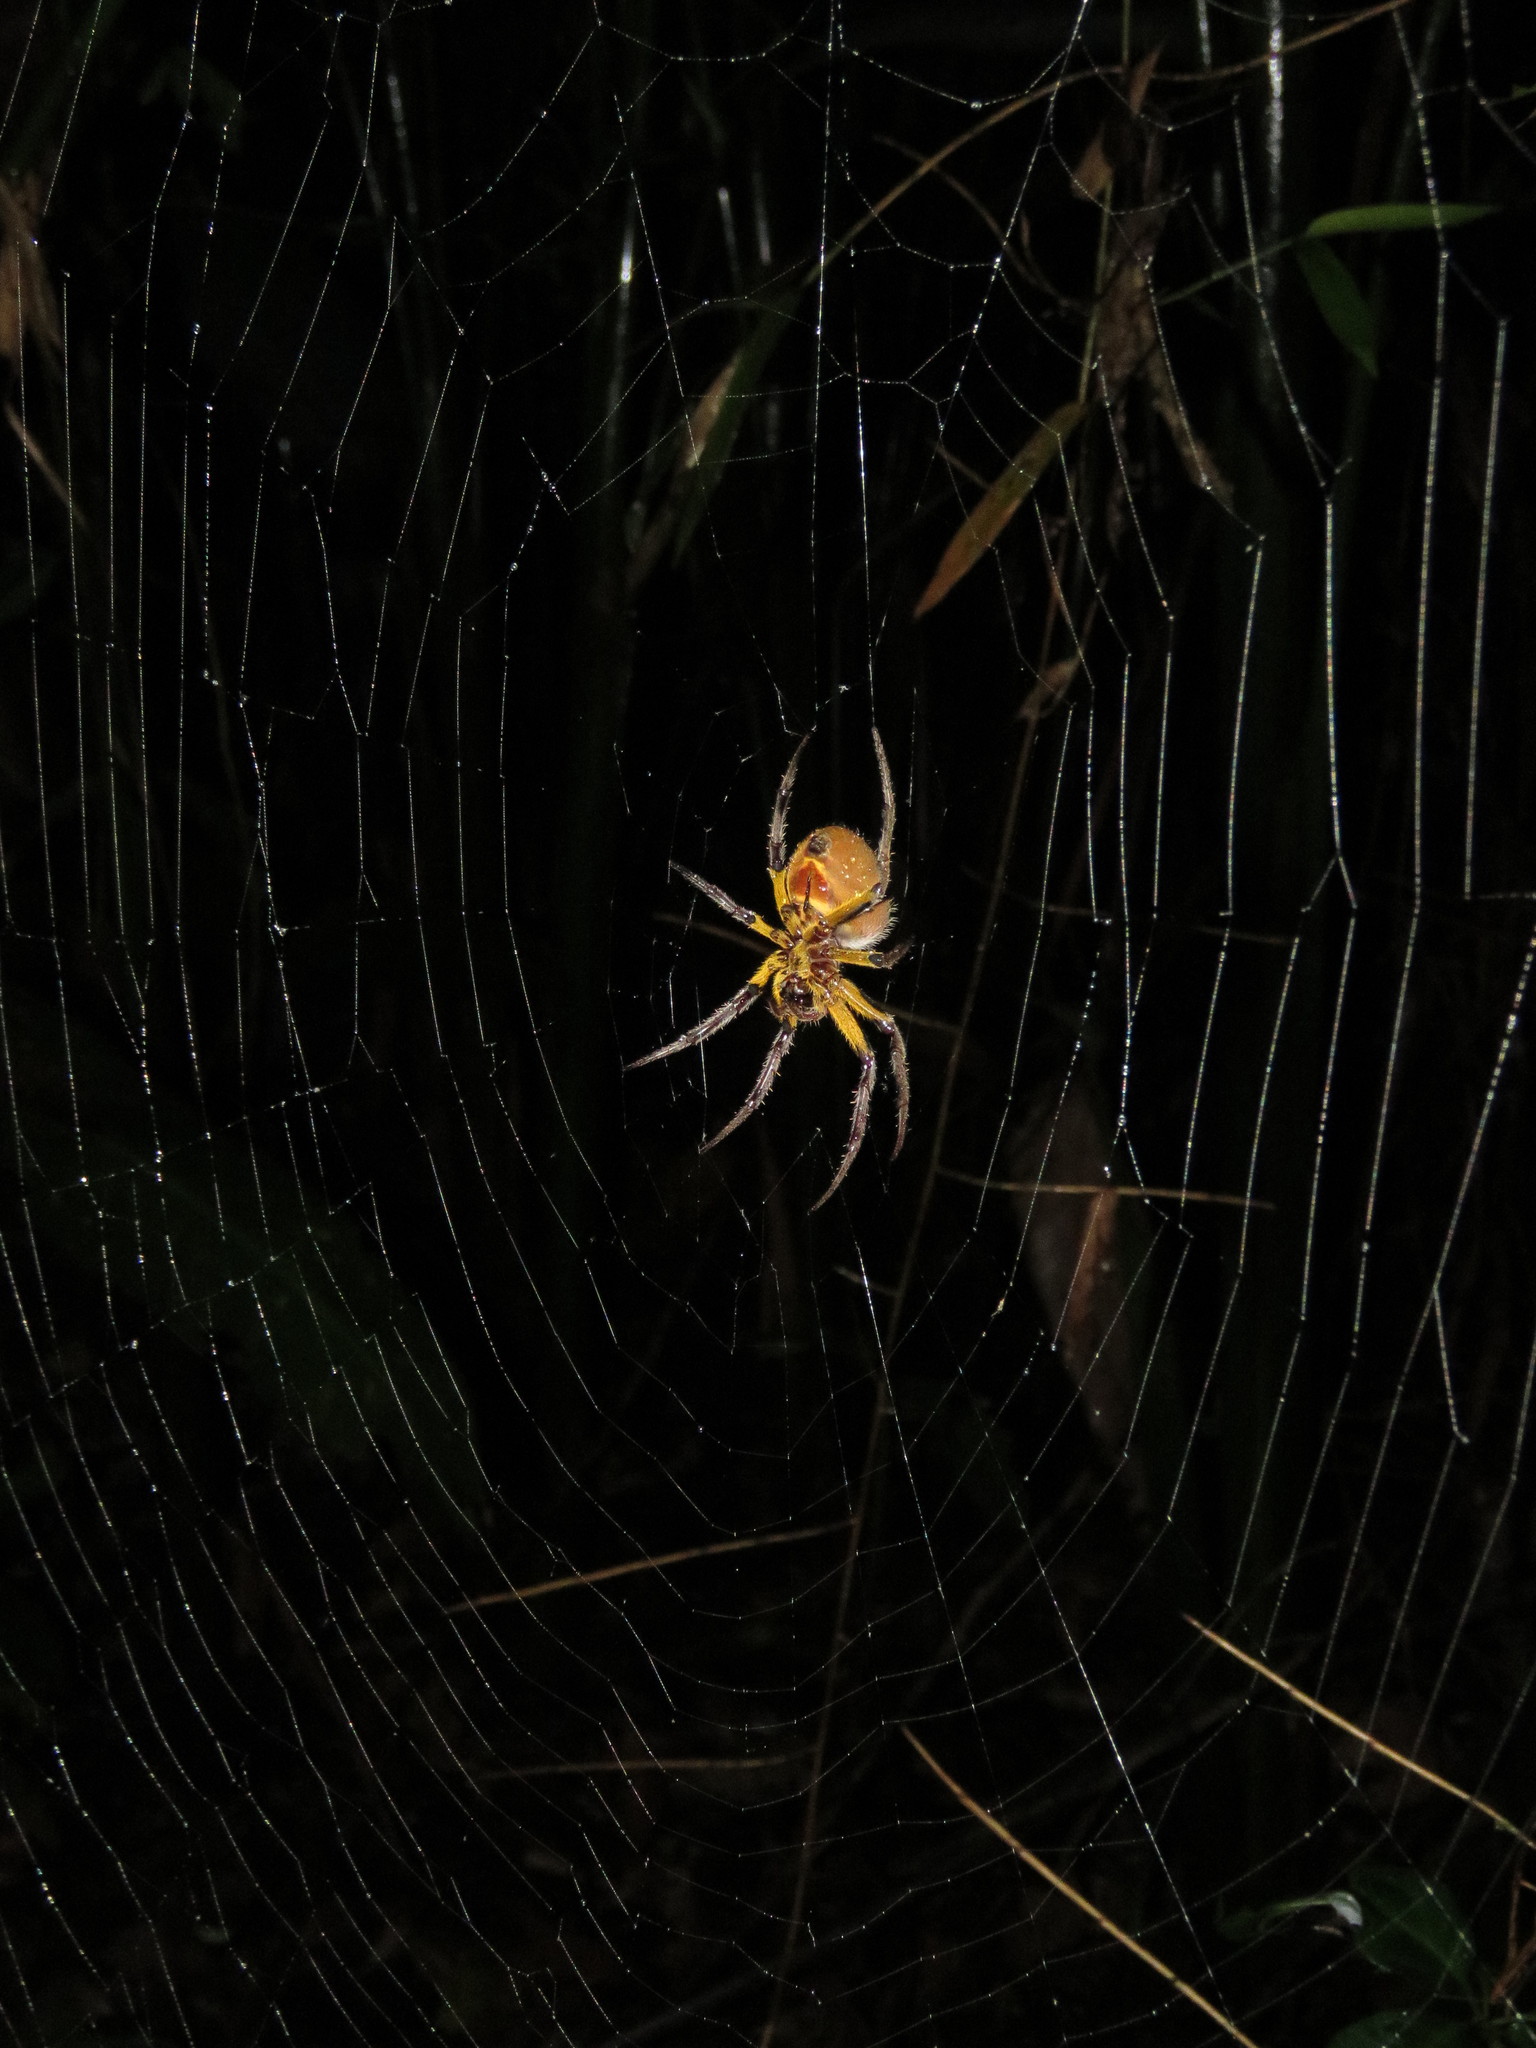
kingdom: Animalia
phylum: Arthropoda
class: Arachnida
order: Araneae
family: Araneidae
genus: Eriophora
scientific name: Eriophora fuliginea
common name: Orb weavers
